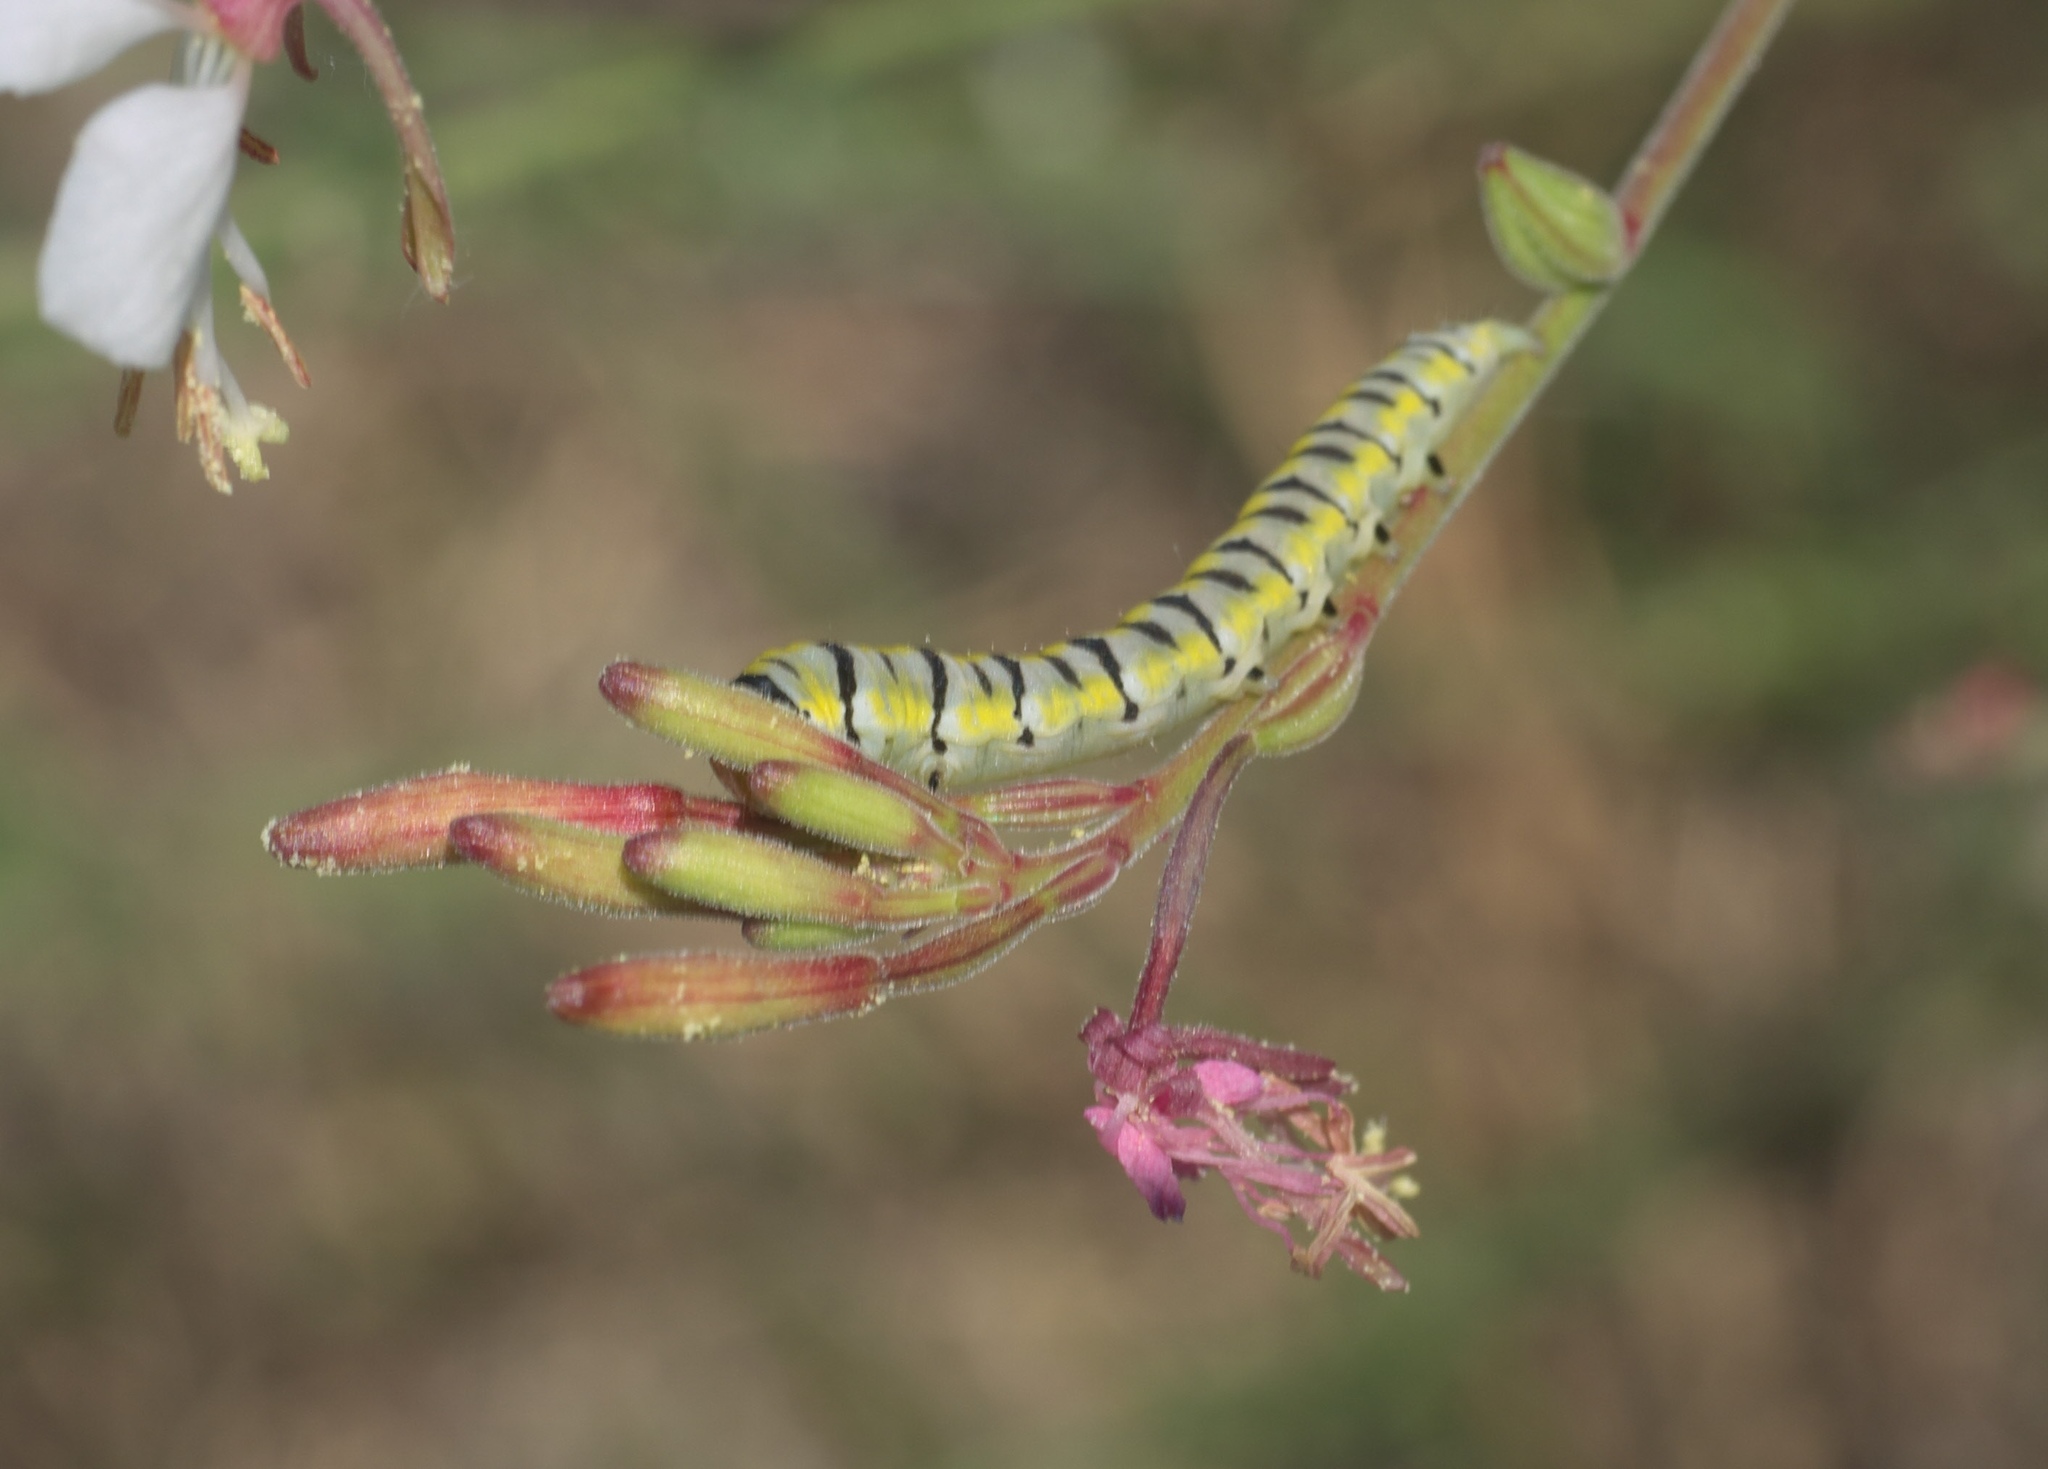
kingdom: Animalia
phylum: Arthropoda
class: Insecta
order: Lepidoptera
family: Noctuidae
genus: Schinia
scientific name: Schinia gaurae
